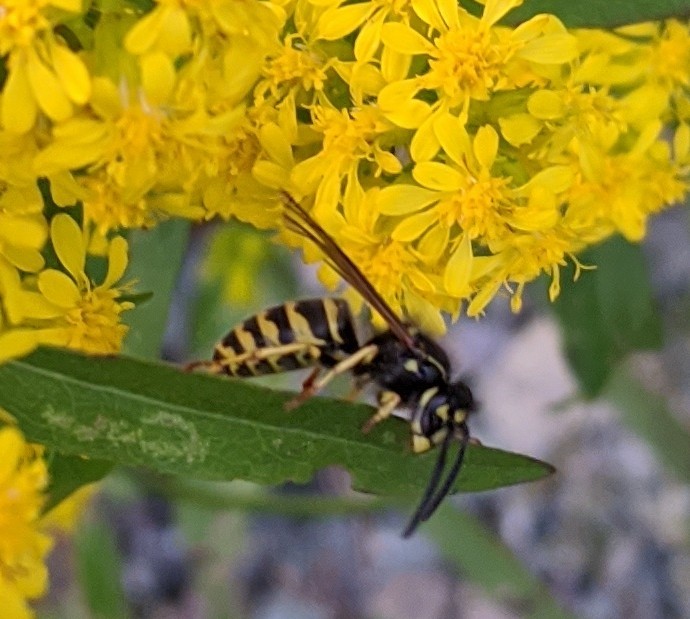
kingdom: Animalia
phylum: Arthropoda
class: Insecta
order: Hymenoptera
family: Vespidae
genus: Vespula
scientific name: Vespula alascensis
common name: Alaska yellowjacket
